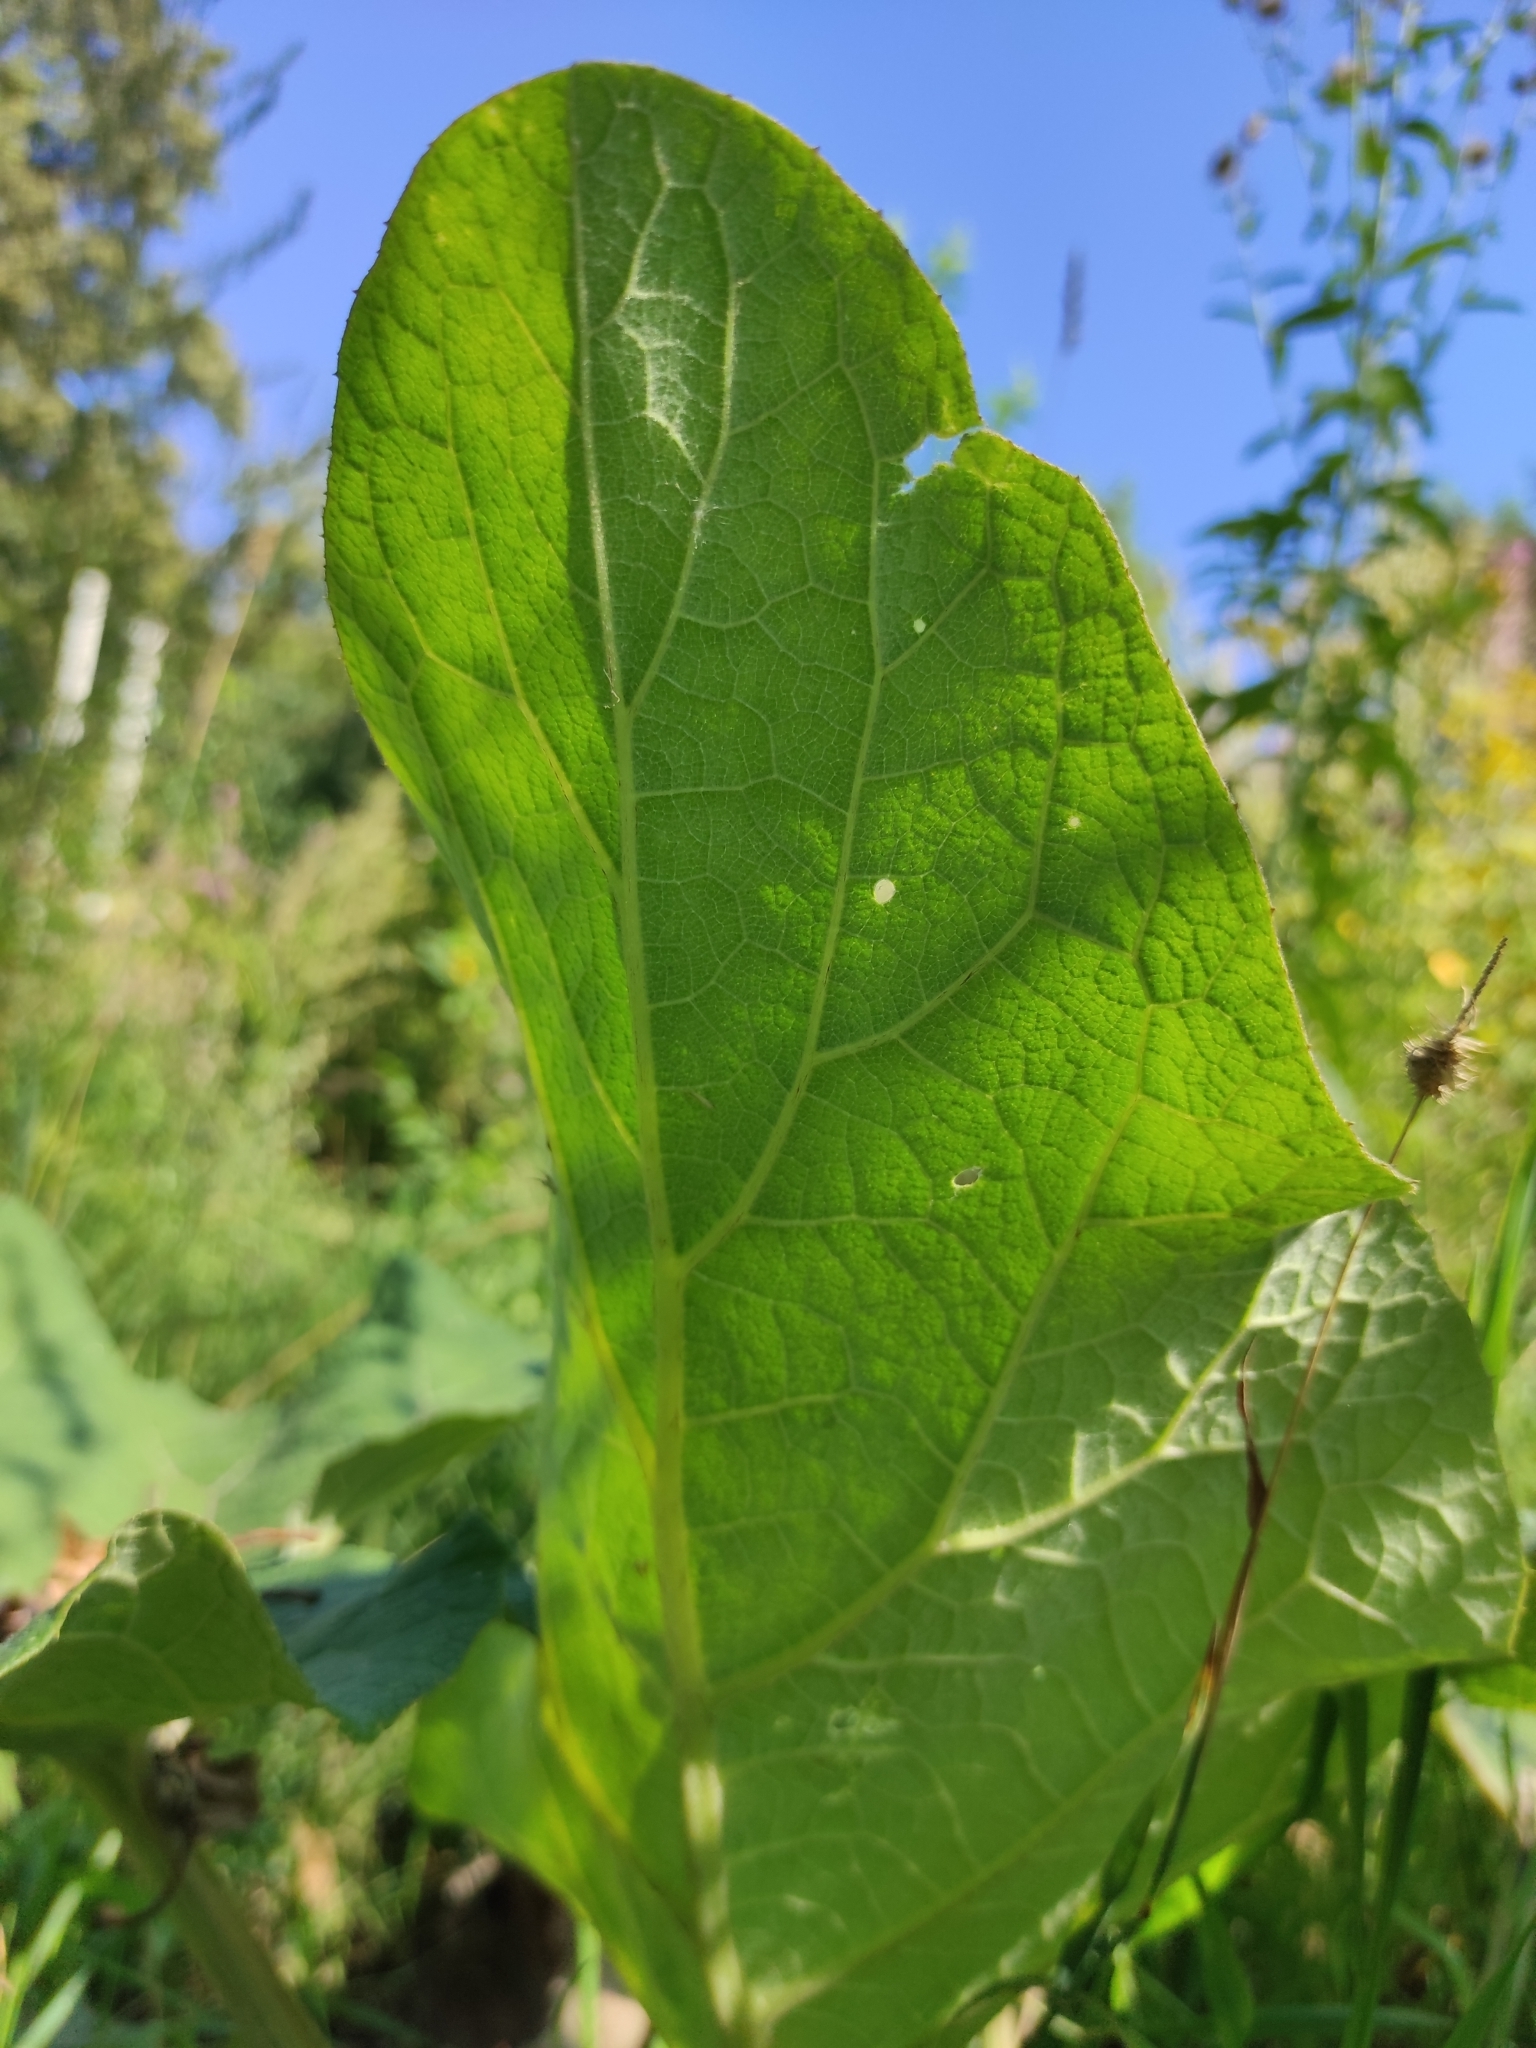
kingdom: Plantae
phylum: Tracheophyta
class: Magnoliopsida
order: Asterales
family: Asteraceae
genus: Arctium
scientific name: Arctium tomentosum
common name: Woolly burdock
